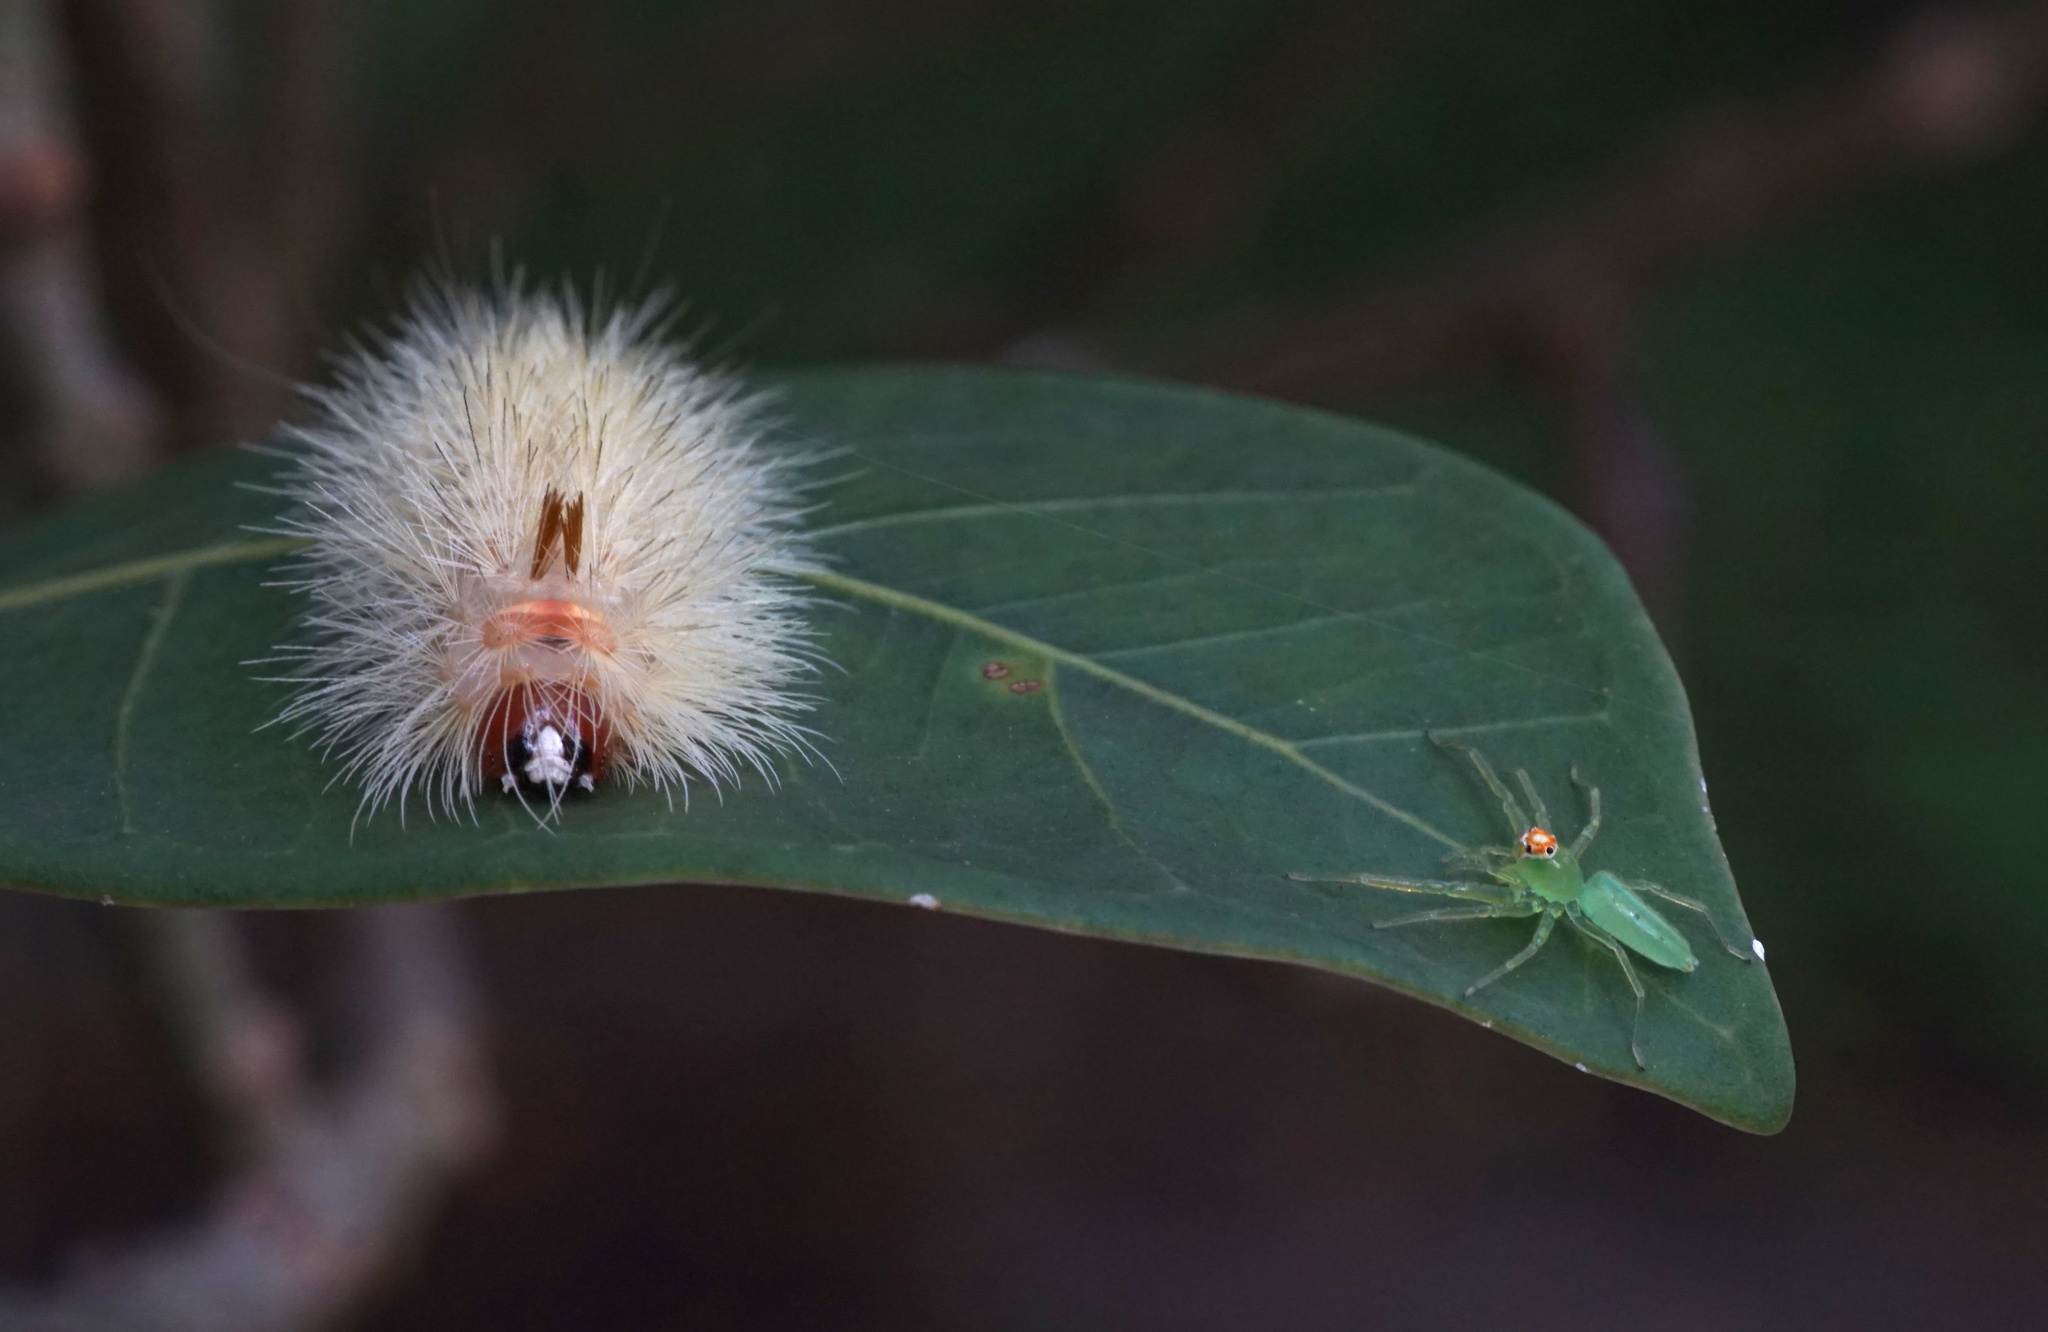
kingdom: Animalia
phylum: Arthropoda
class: Arachnida
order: Araneae
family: Salticidae
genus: Lyssomanes
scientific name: Lyssomanes viridis
